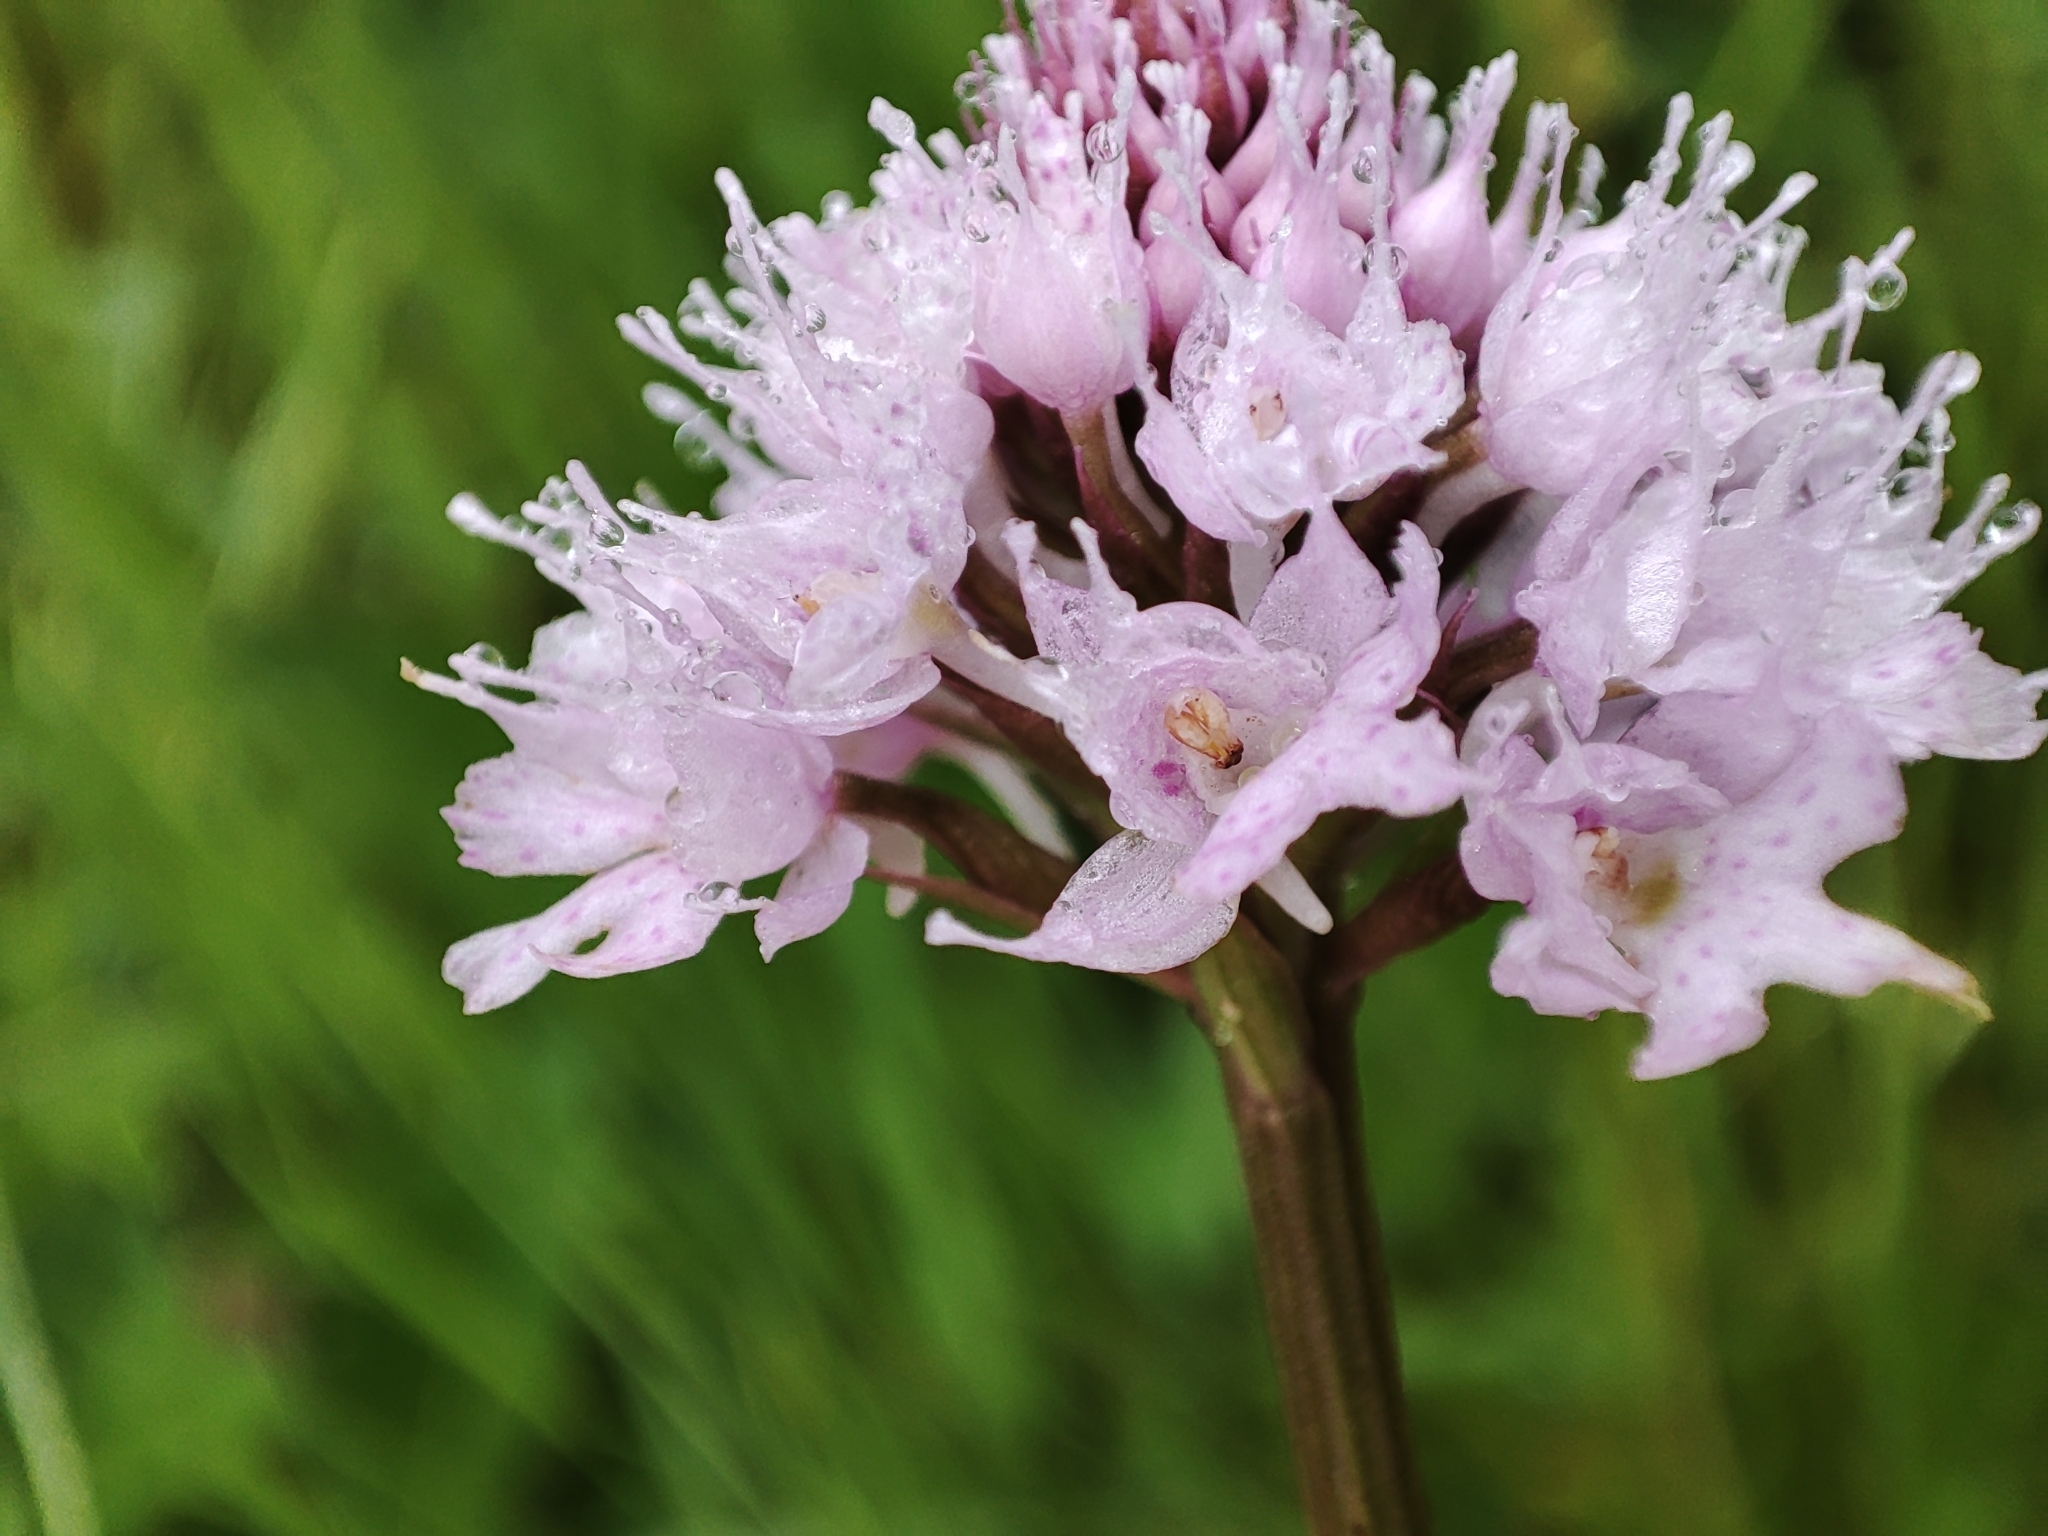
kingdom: Plantae
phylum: Tracheophyta
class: Liliopsida
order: Asparagales
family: Orchidaceae
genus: Traunsteinera
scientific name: Traunsteinera globosa
